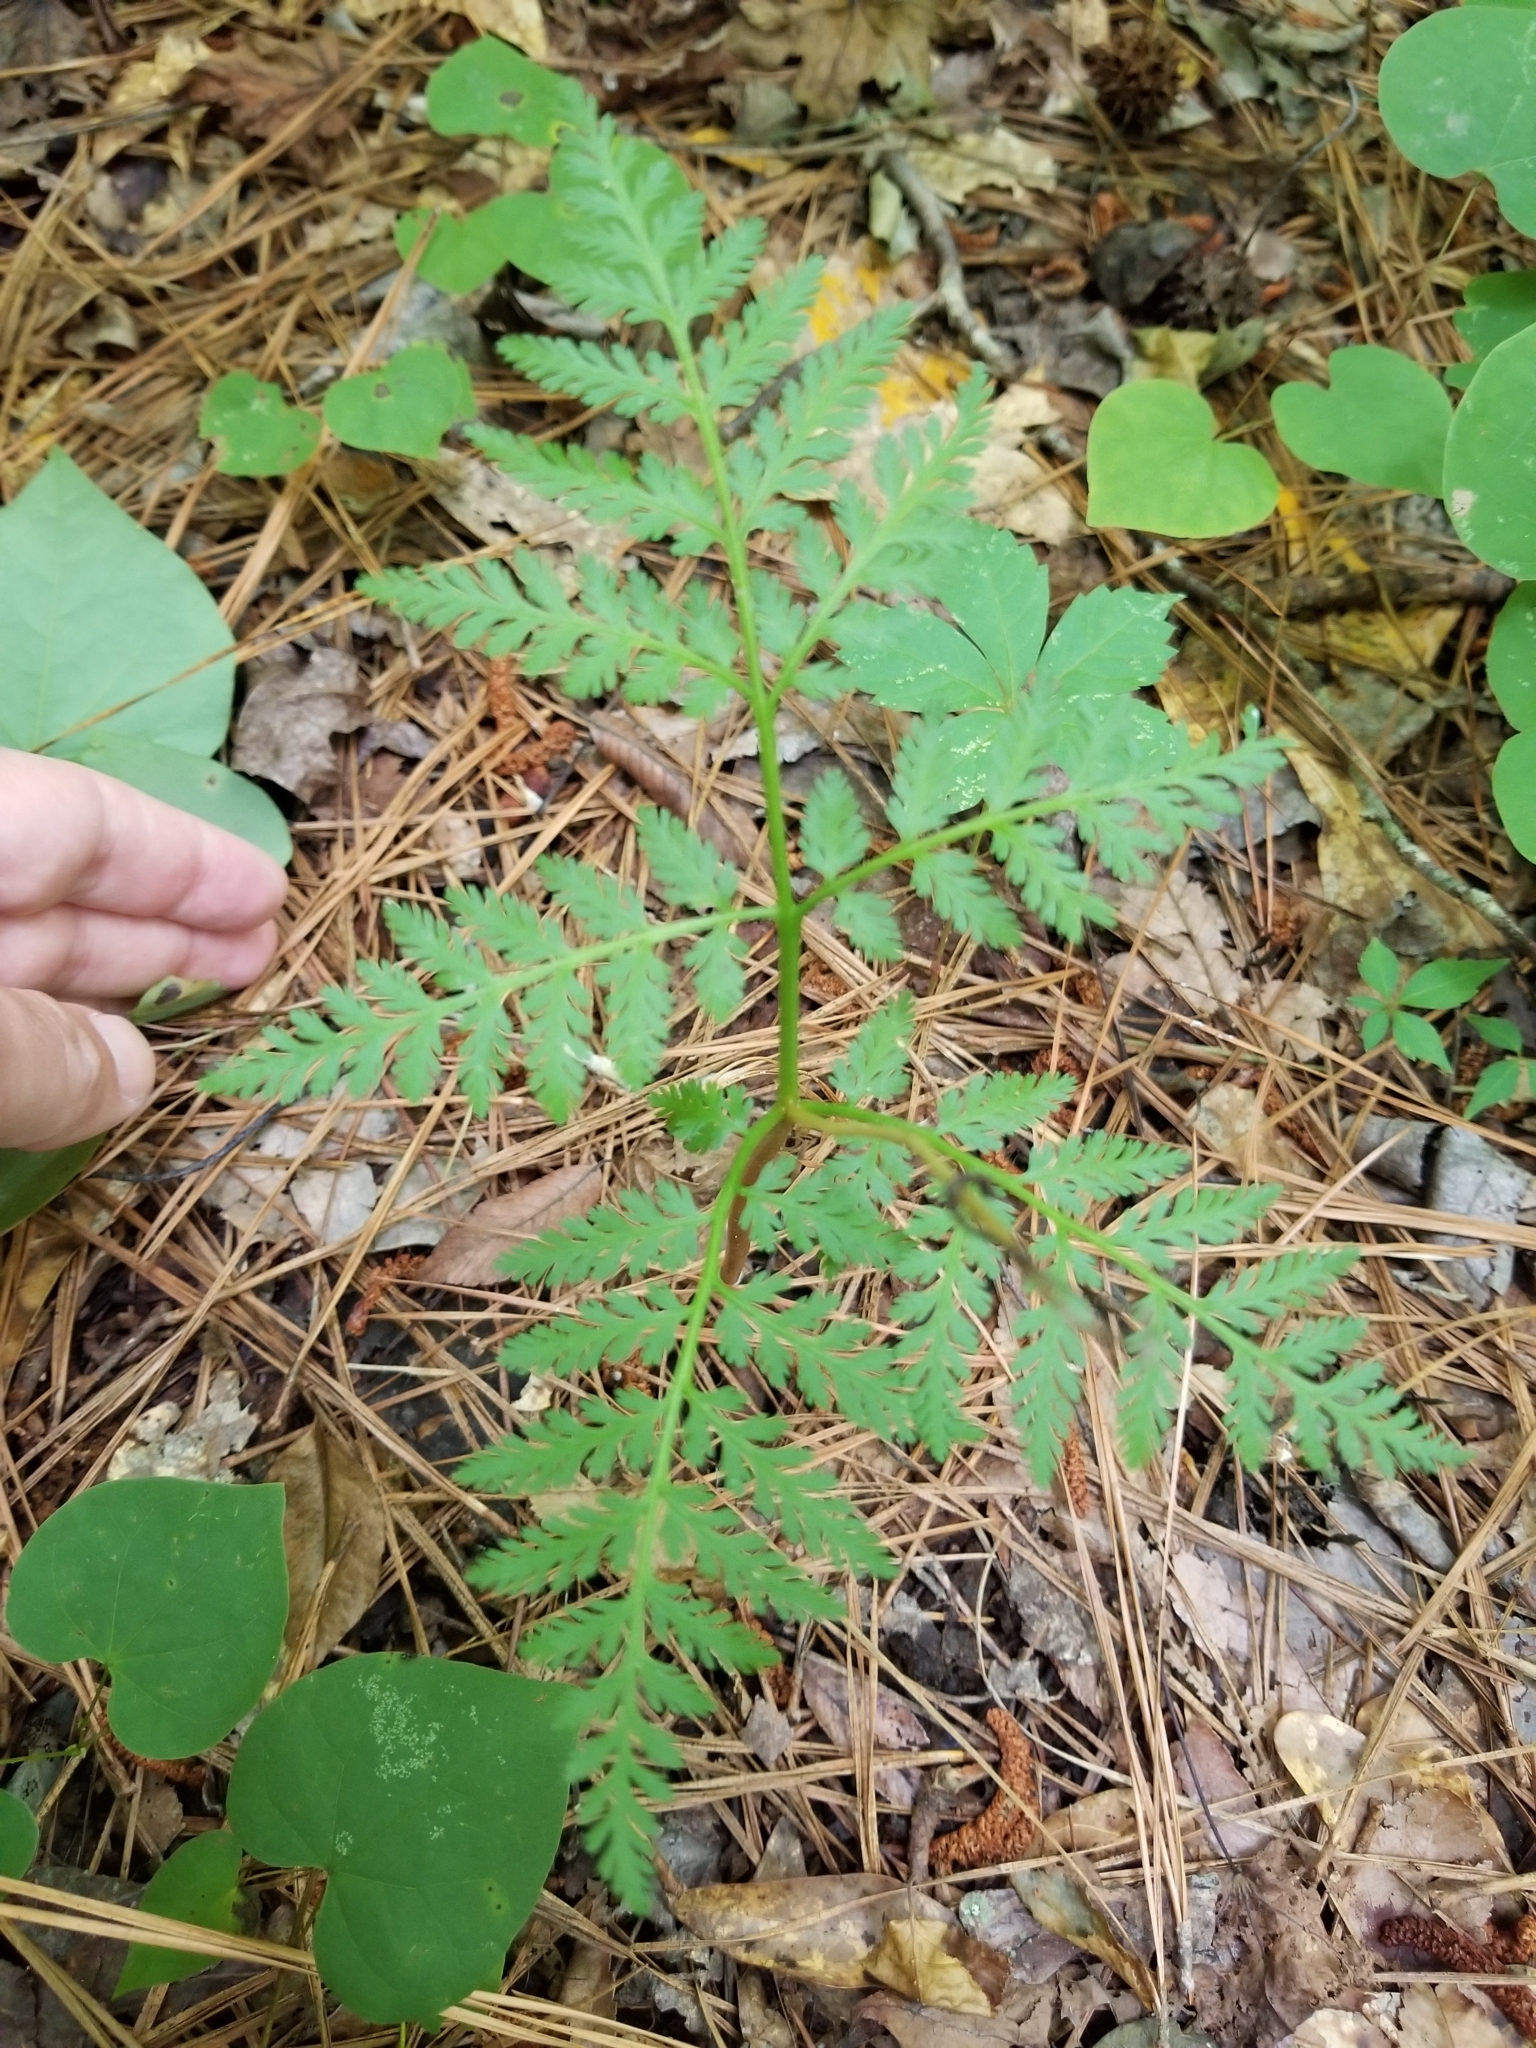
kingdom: Plantae
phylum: Tracheophyta
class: Polypodiopsida
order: Ophioglossales
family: Ophioglossaceae
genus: Botrypus
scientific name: Botrypus virginianus
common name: Common grapefern
